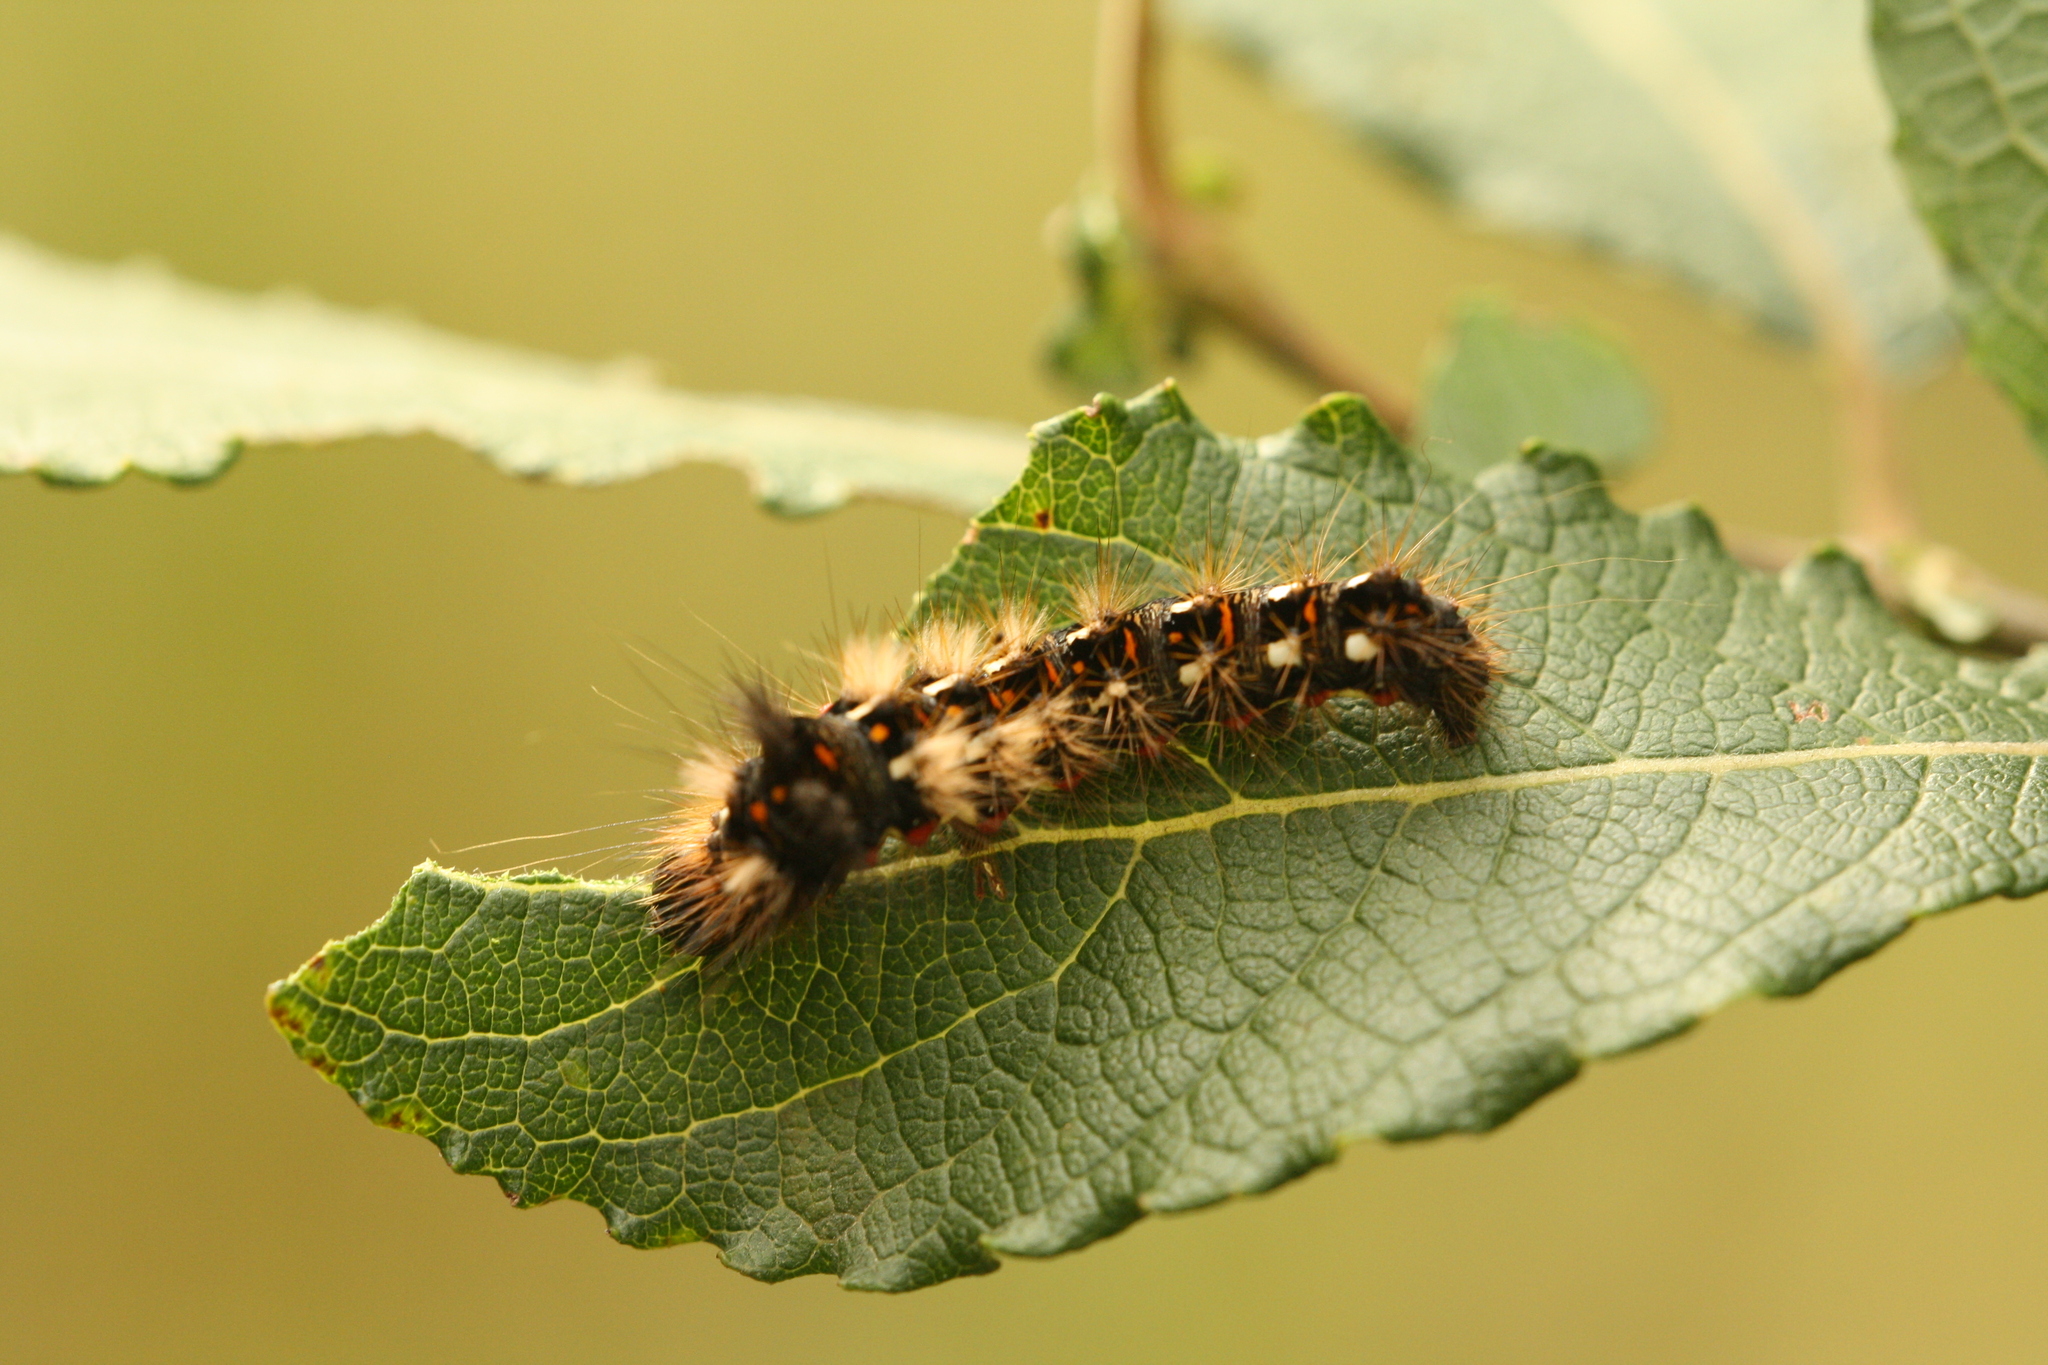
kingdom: Animalia
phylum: Arthropoda
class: Insecta
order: Lepidoptera
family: Noctuidae
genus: Acronicta
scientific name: Acronicta rumicis
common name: Knot grass
